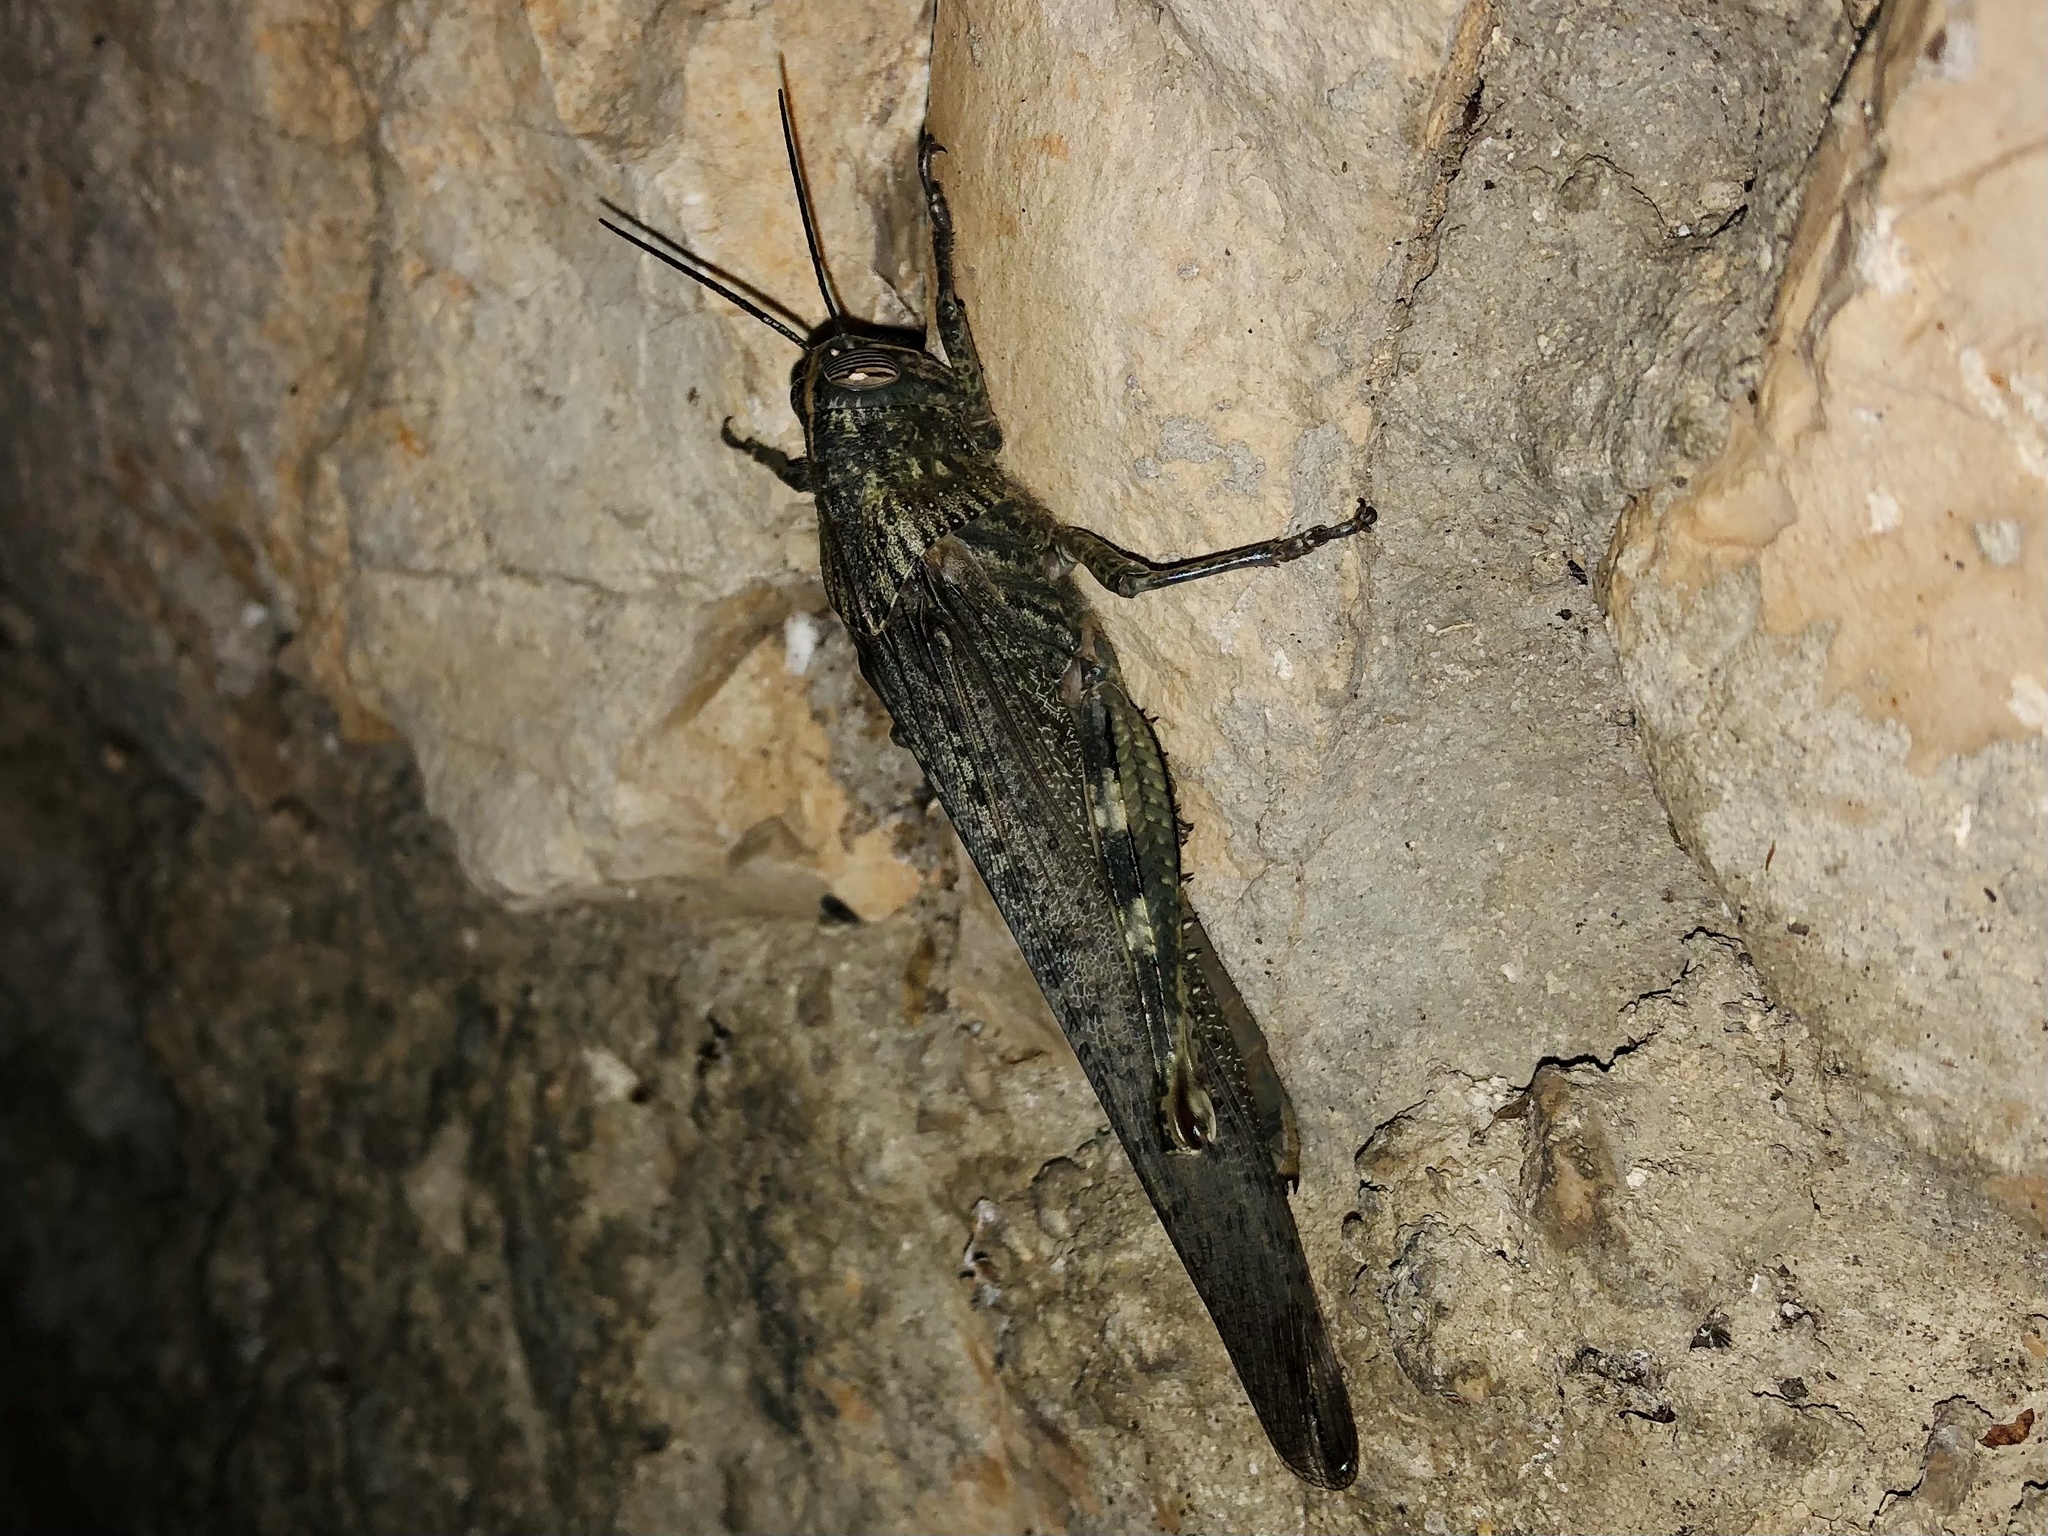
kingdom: Animalia
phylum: Arthropoda
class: Insecta
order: Orthoptera
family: Acrididae
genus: Anacridium
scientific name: Anacridium aegyptium
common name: Egyptian grasshopper
